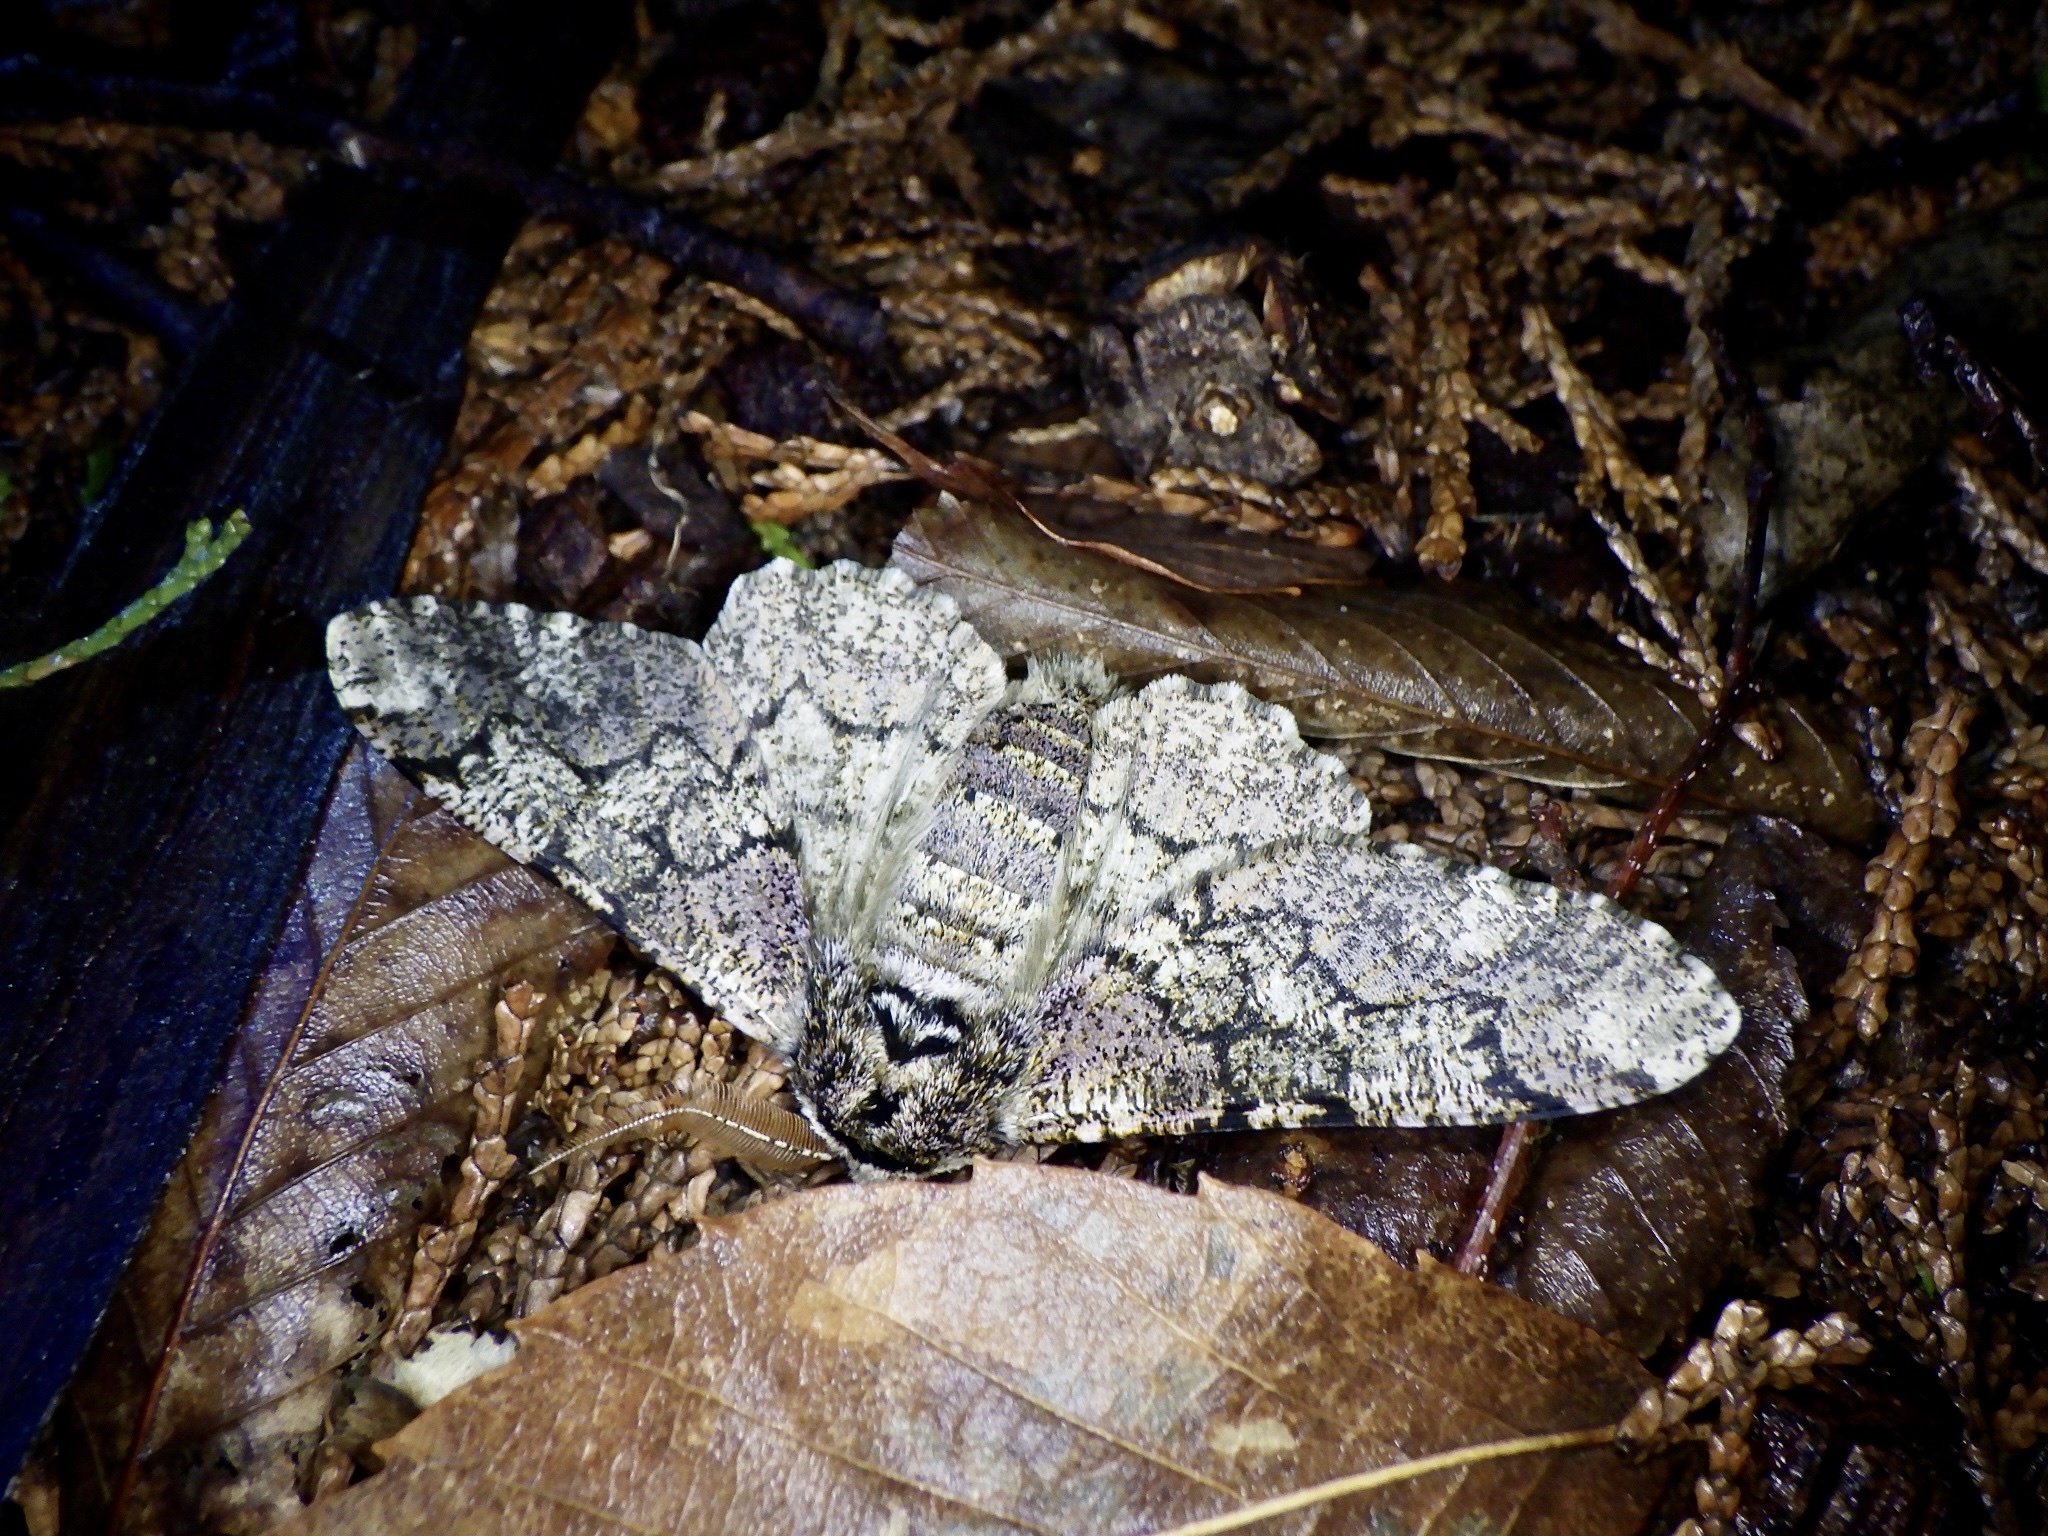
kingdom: Animalia
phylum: Arthropoda
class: Insecta
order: Lepidoptera
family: Geometridae
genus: Biston
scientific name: Biston robustum
